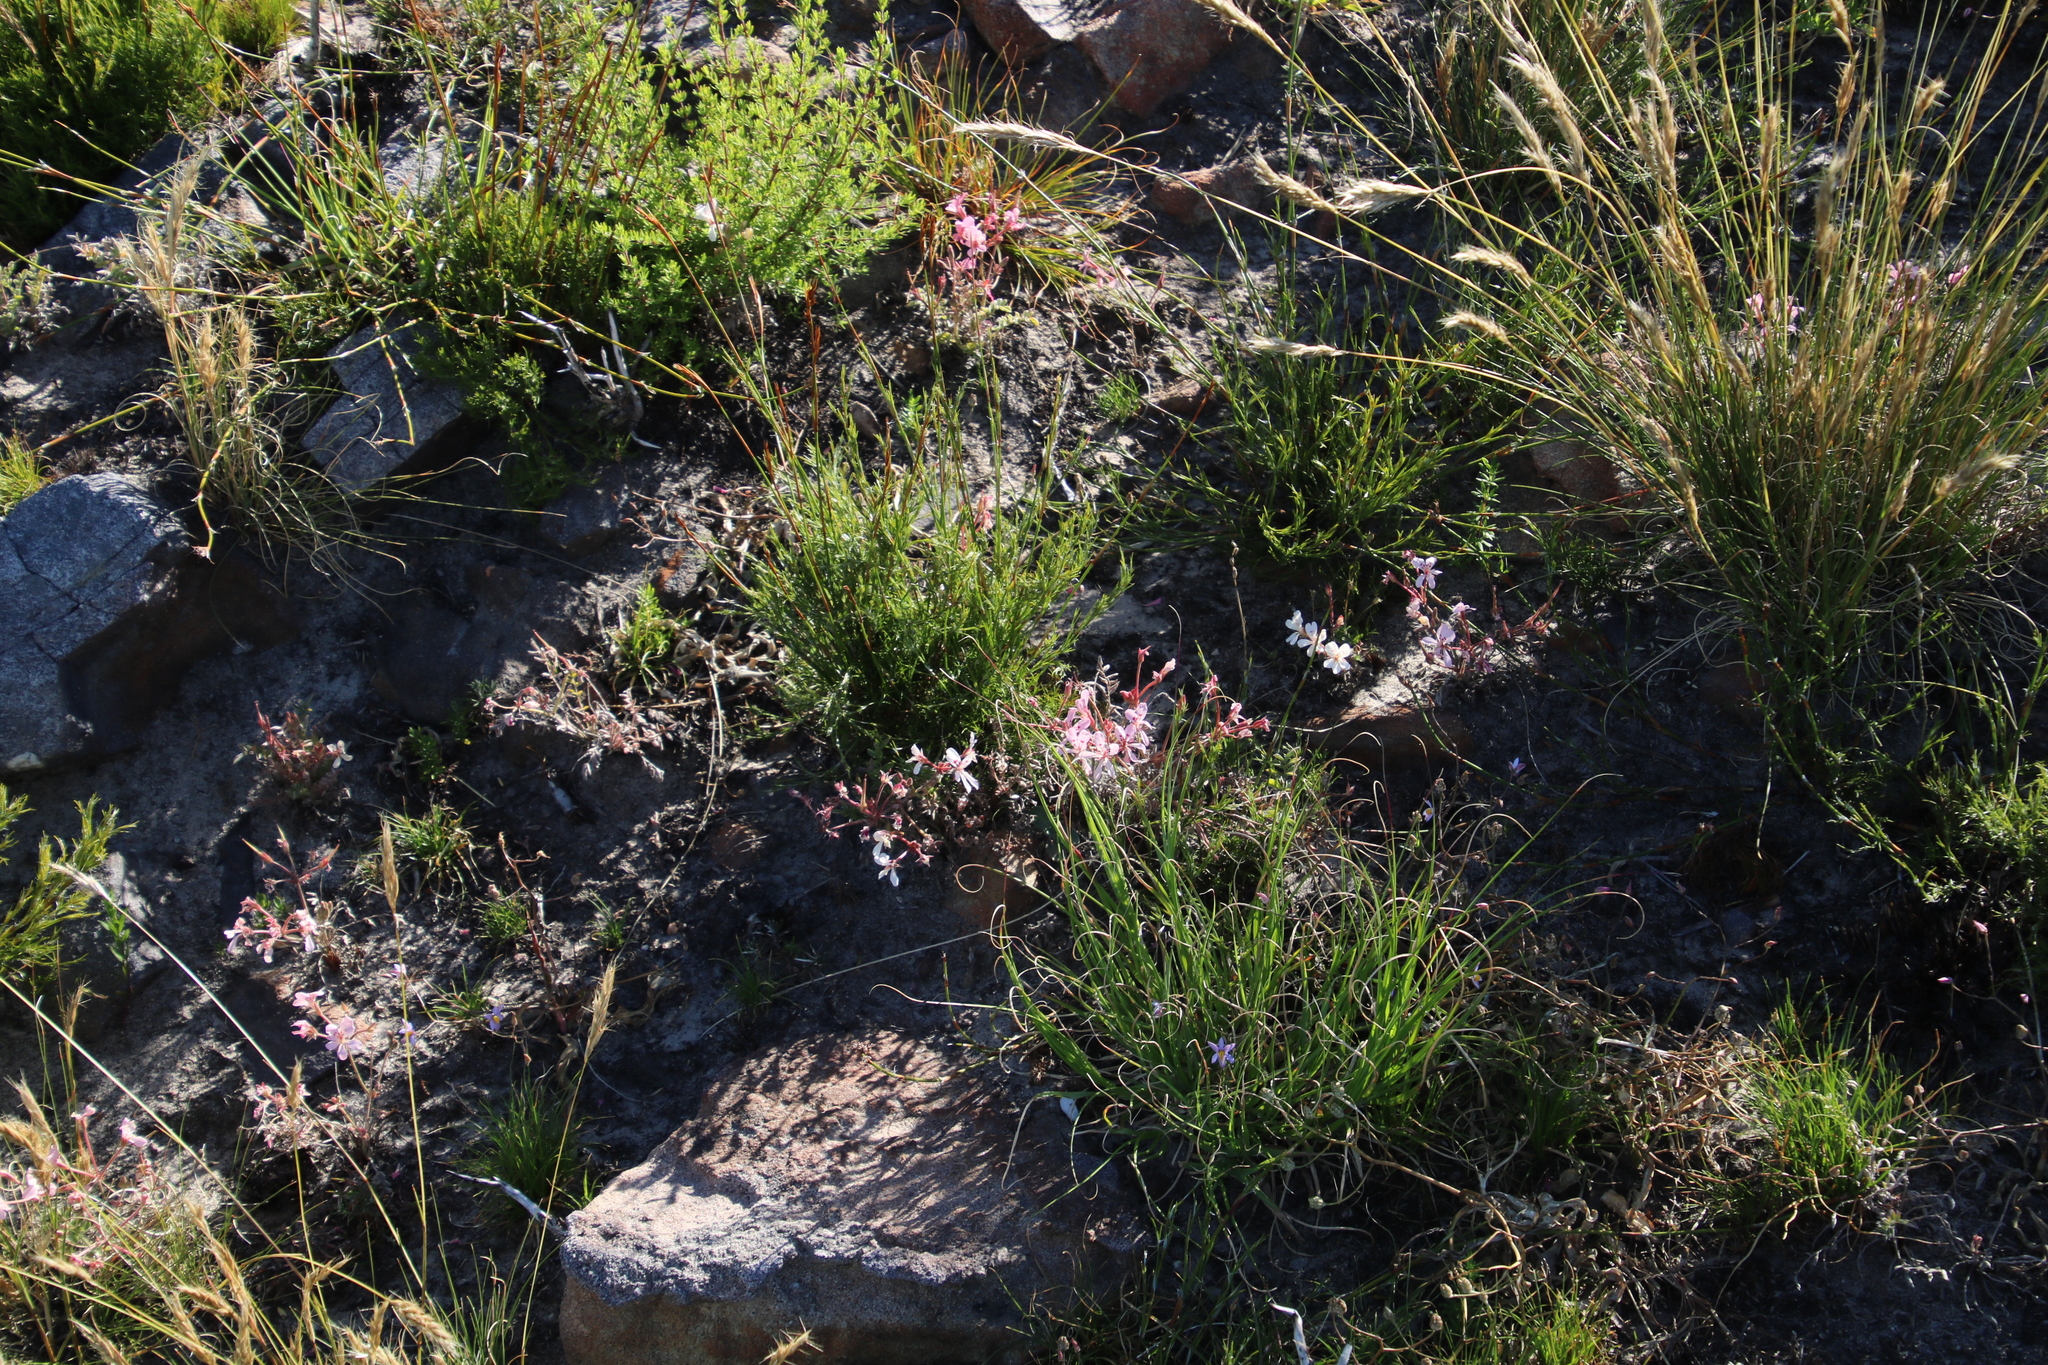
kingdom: Plantae
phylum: Tracheophyta
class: Magnoliopsida
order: Geraniales
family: Geraniaceae
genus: Pelargonium
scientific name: Pelargonium pinnatum
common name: Pinnated pelargonium
